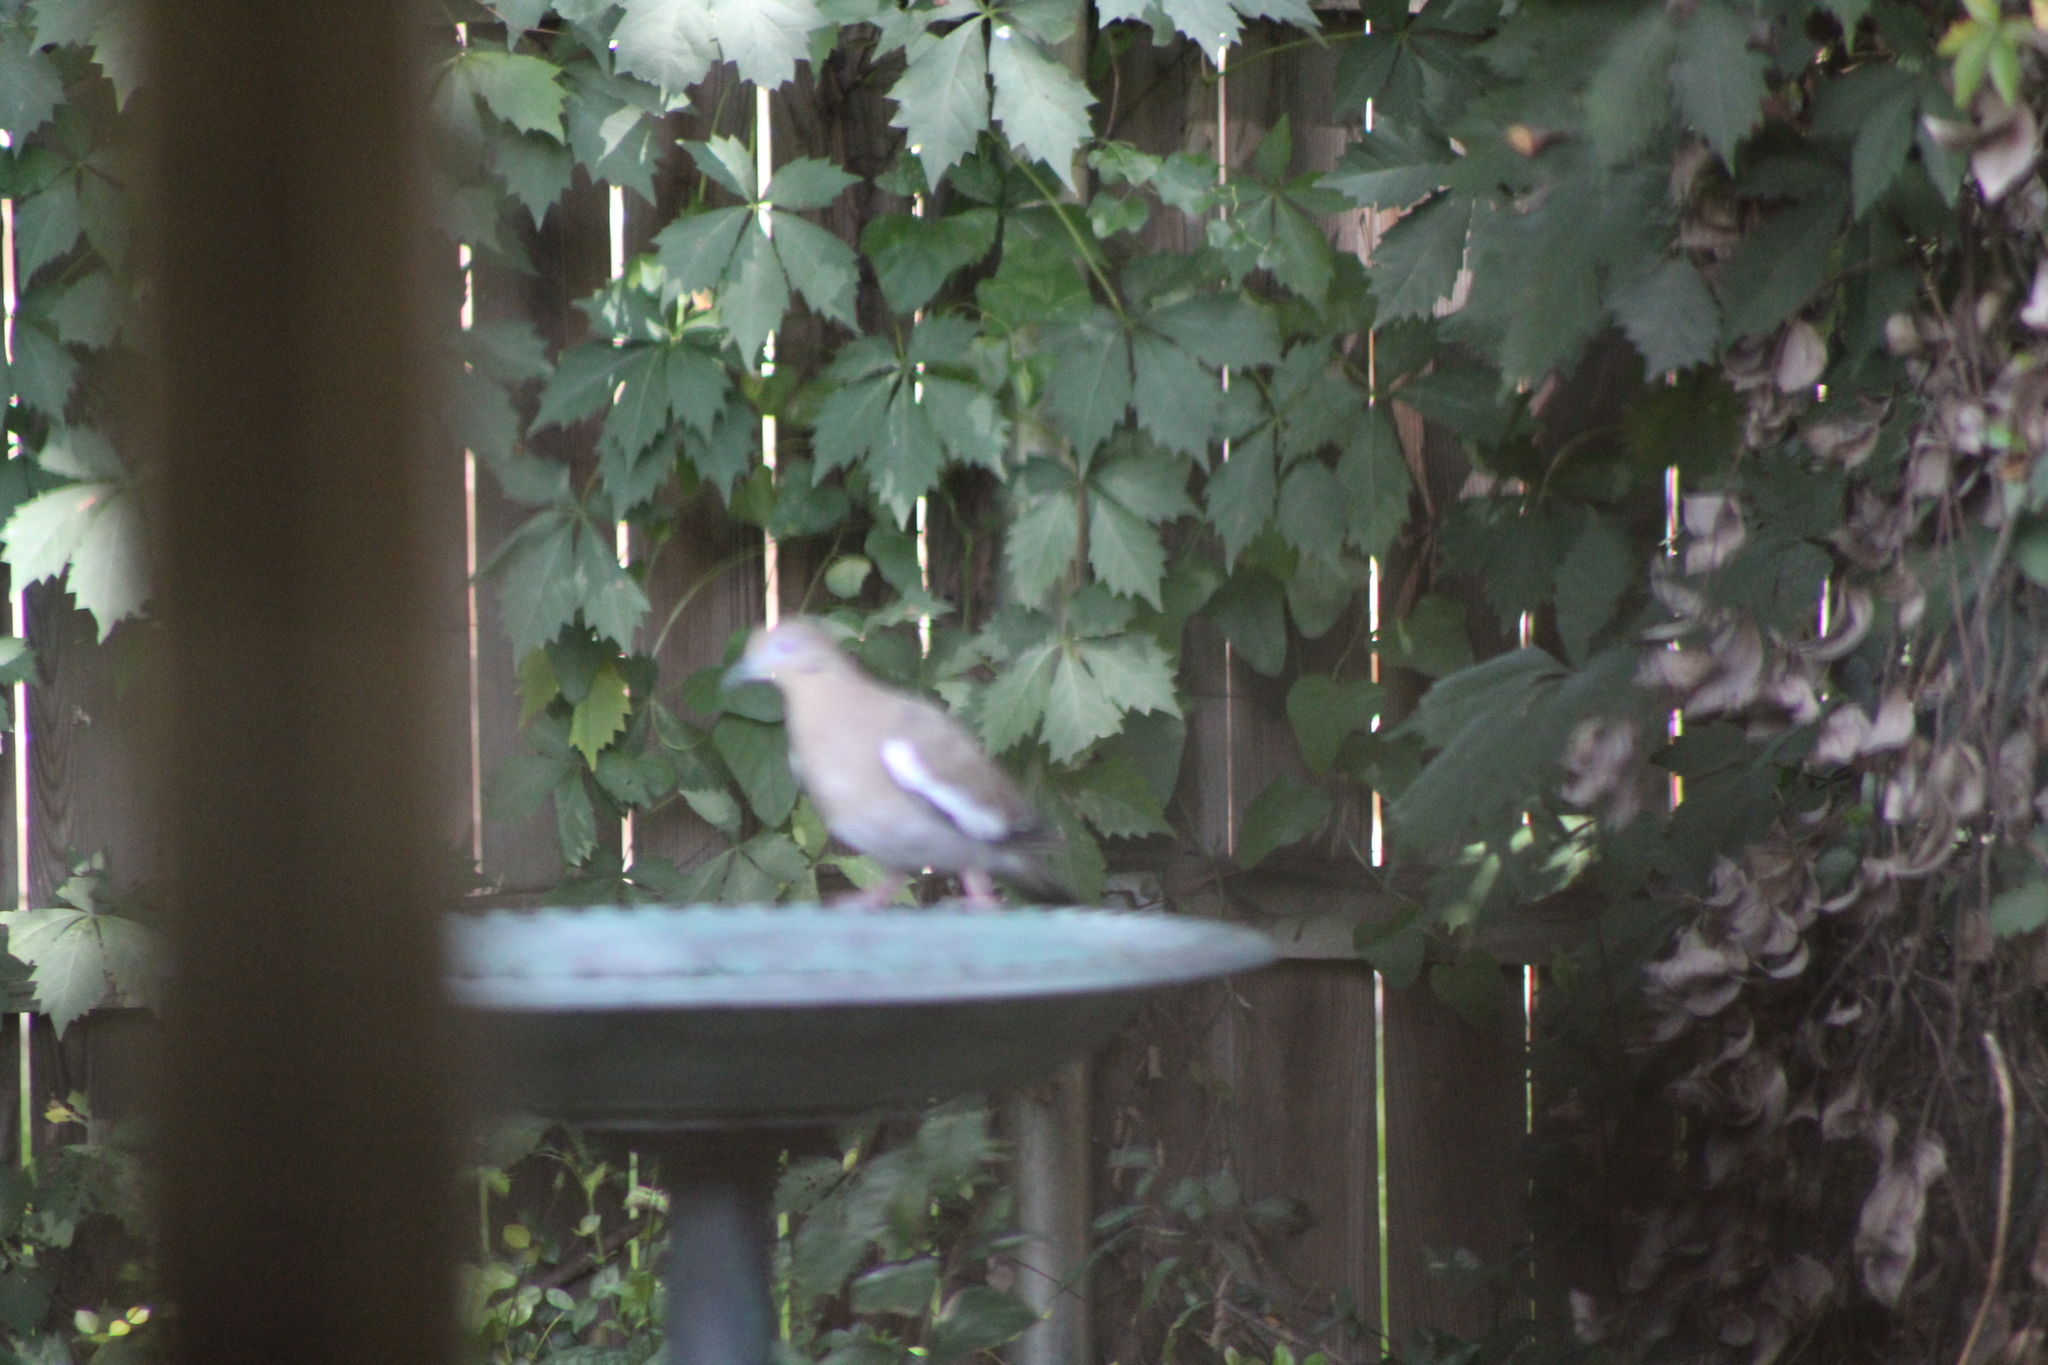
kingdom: Animalia
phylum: Chordata
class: Aves
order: Columbiformes
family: Columbidae
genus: Zenaida
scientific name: Zenaida asiatica
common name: White-winged dove
